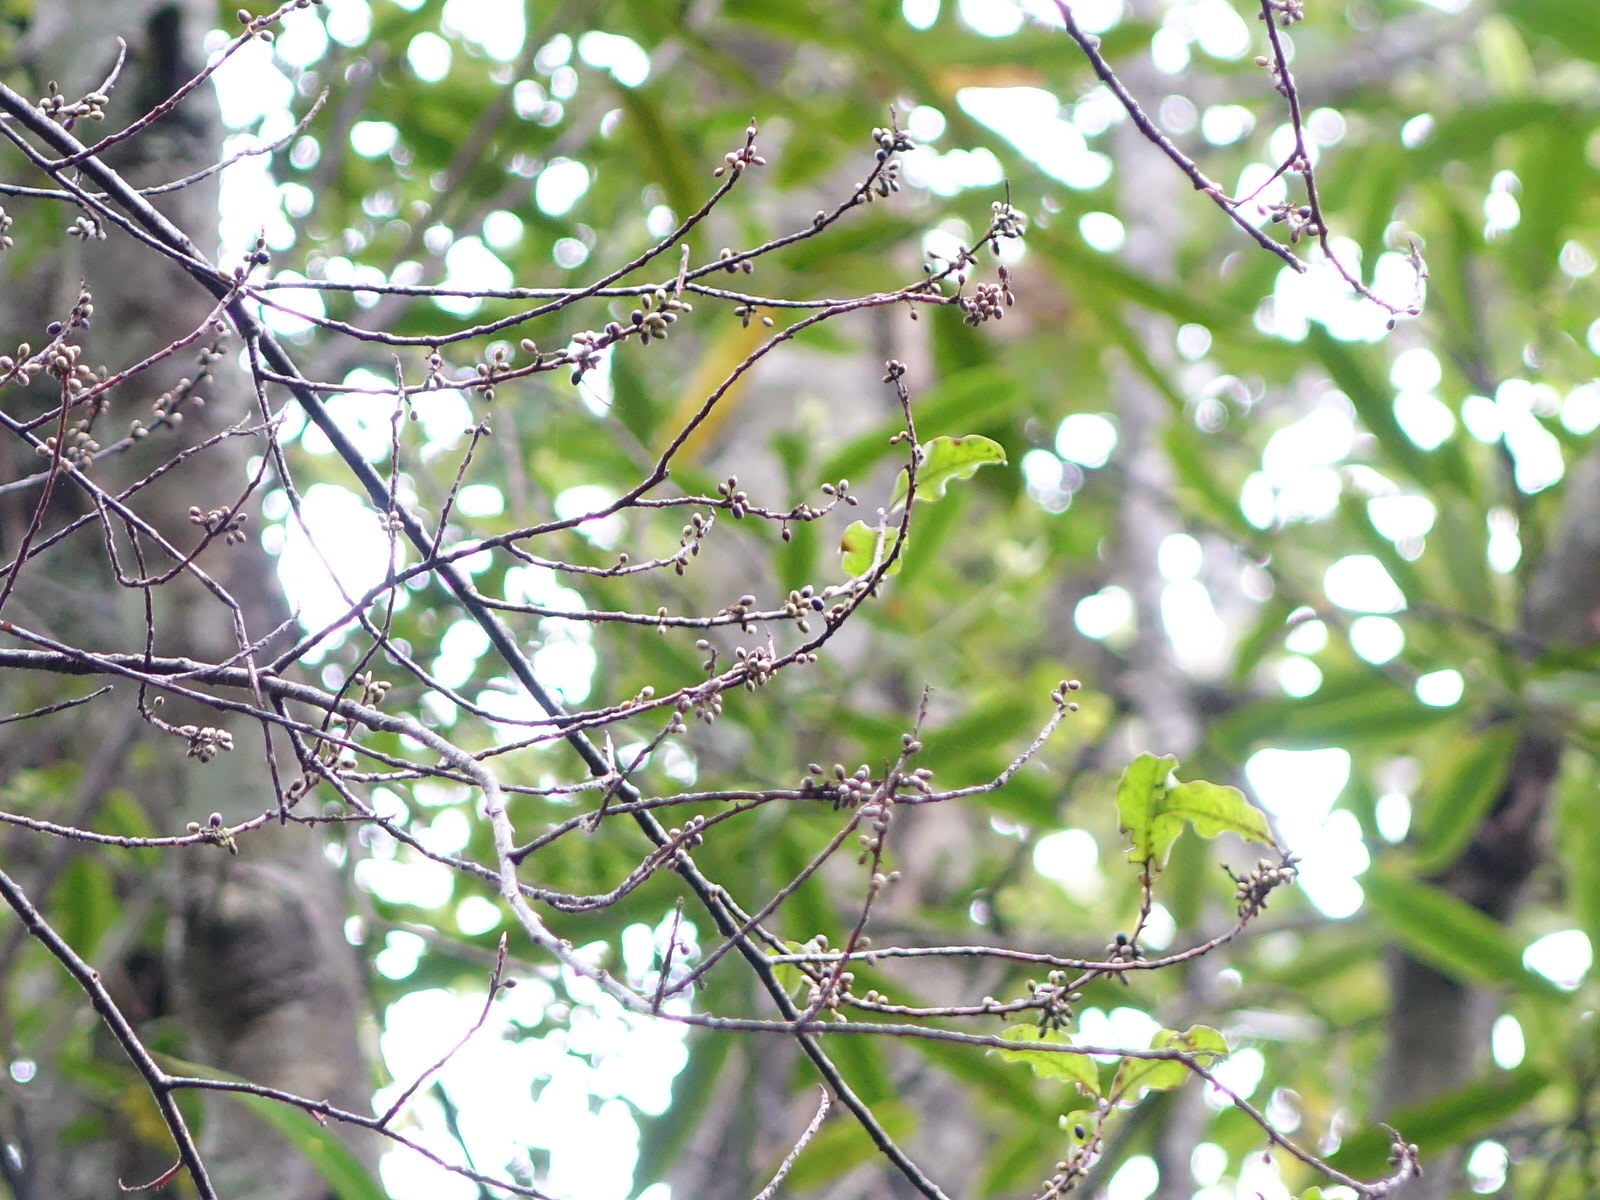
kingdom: Plantae
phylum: Tracheophyta
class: Magnoliopsida
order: Ericales
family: Primulaceae
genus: Myrsine
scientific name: Myrsine australis
